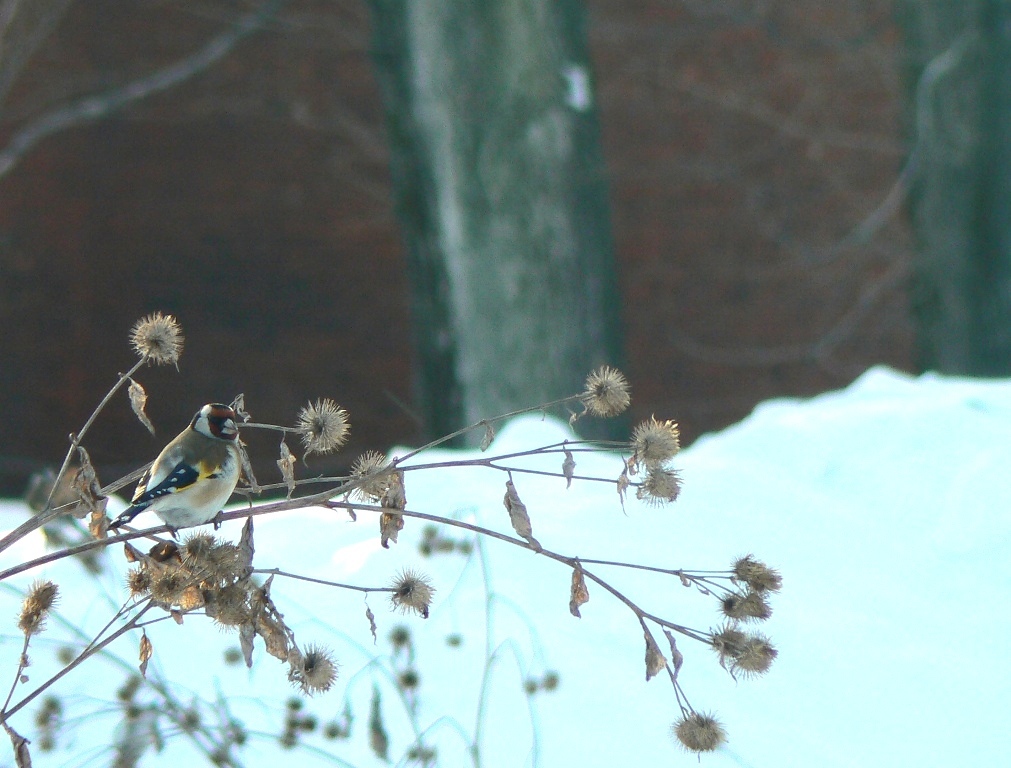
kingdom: Animalia
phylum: Chordata
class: Aves
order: Passeriformes
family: Fringillidae
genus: Carduelis
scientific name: Carduelis carduelis
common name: European goldfinch
